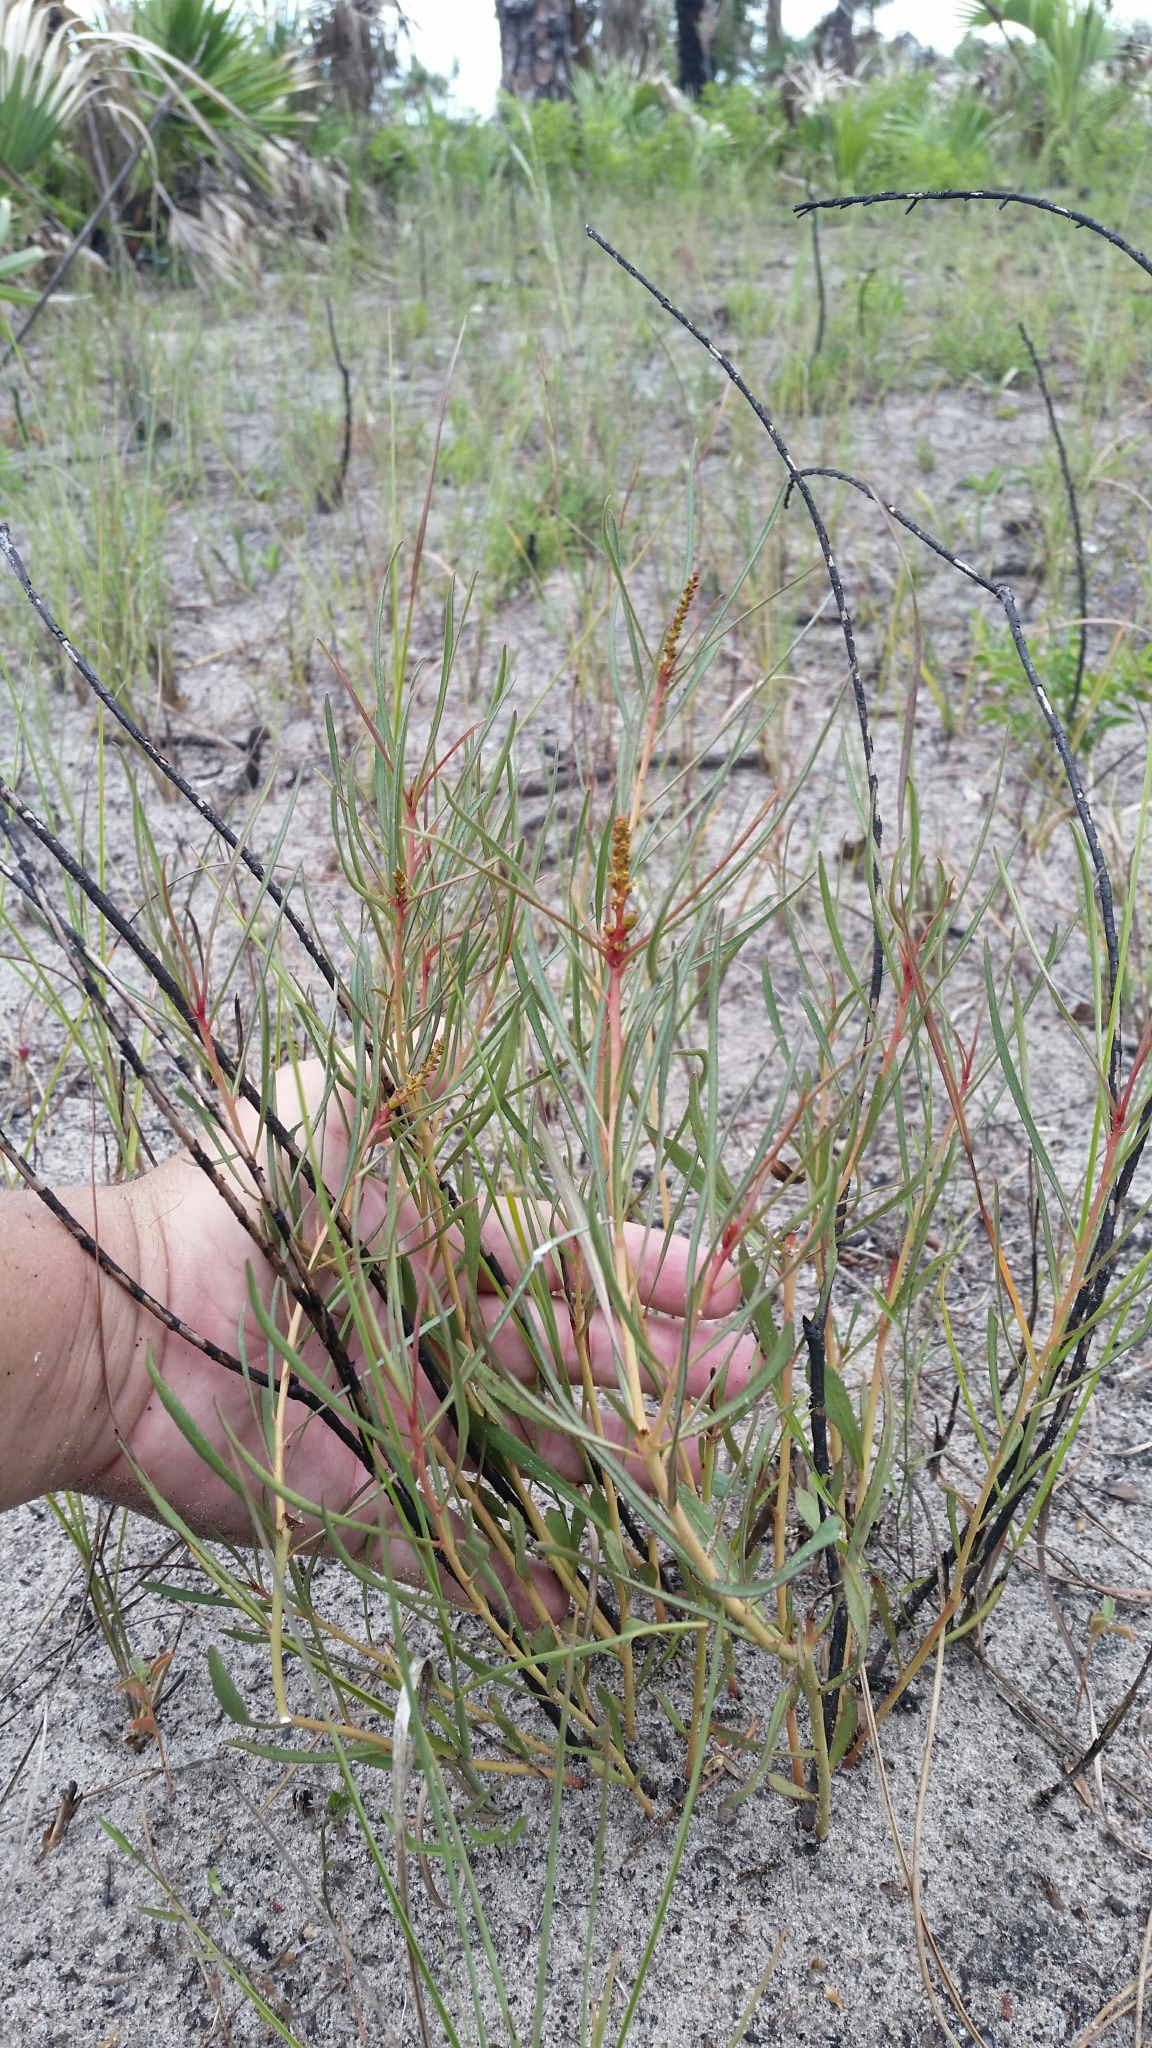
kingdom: Plantae
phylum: Tracheophyta
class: Magnoliopsida
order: Malpighiales
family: Euphorbiaceae
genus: Stillingia
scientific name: Stillingia sylvatica
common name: Queen's-delight
